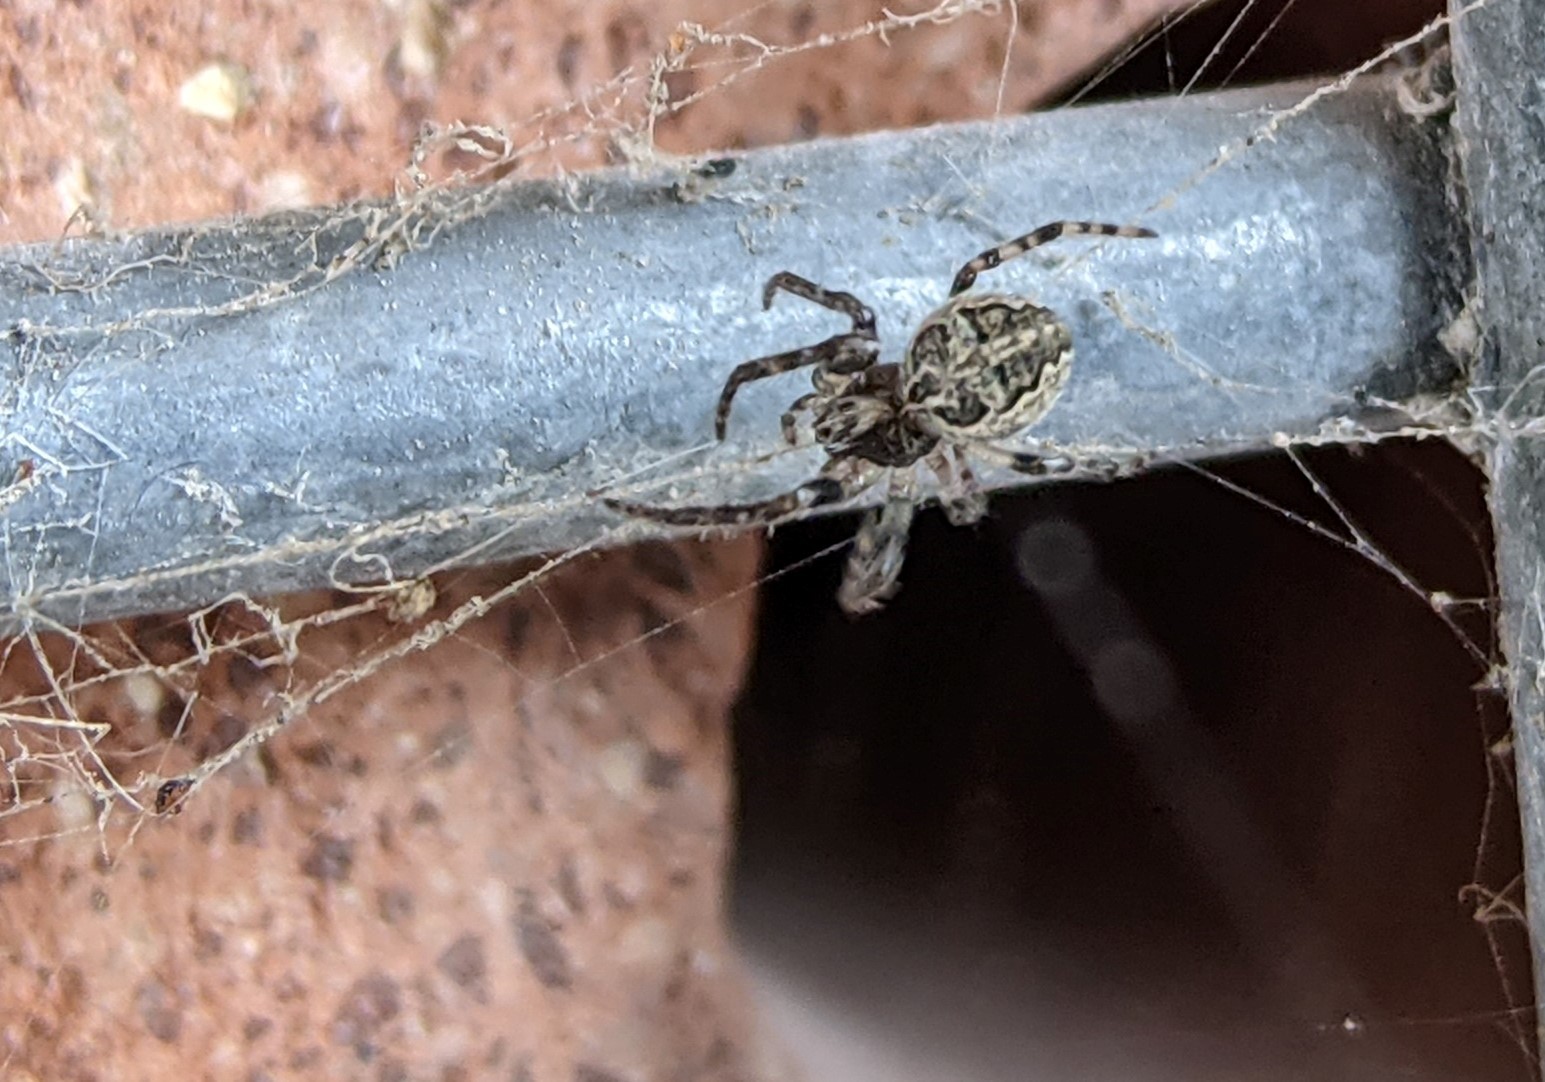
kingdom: Animalia
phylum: Arthropoda
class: Arachnida
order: Araneae
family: Araneidae
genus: Larinioides
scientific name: Larinioides sclopetarius
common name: Bridge orbweaver
